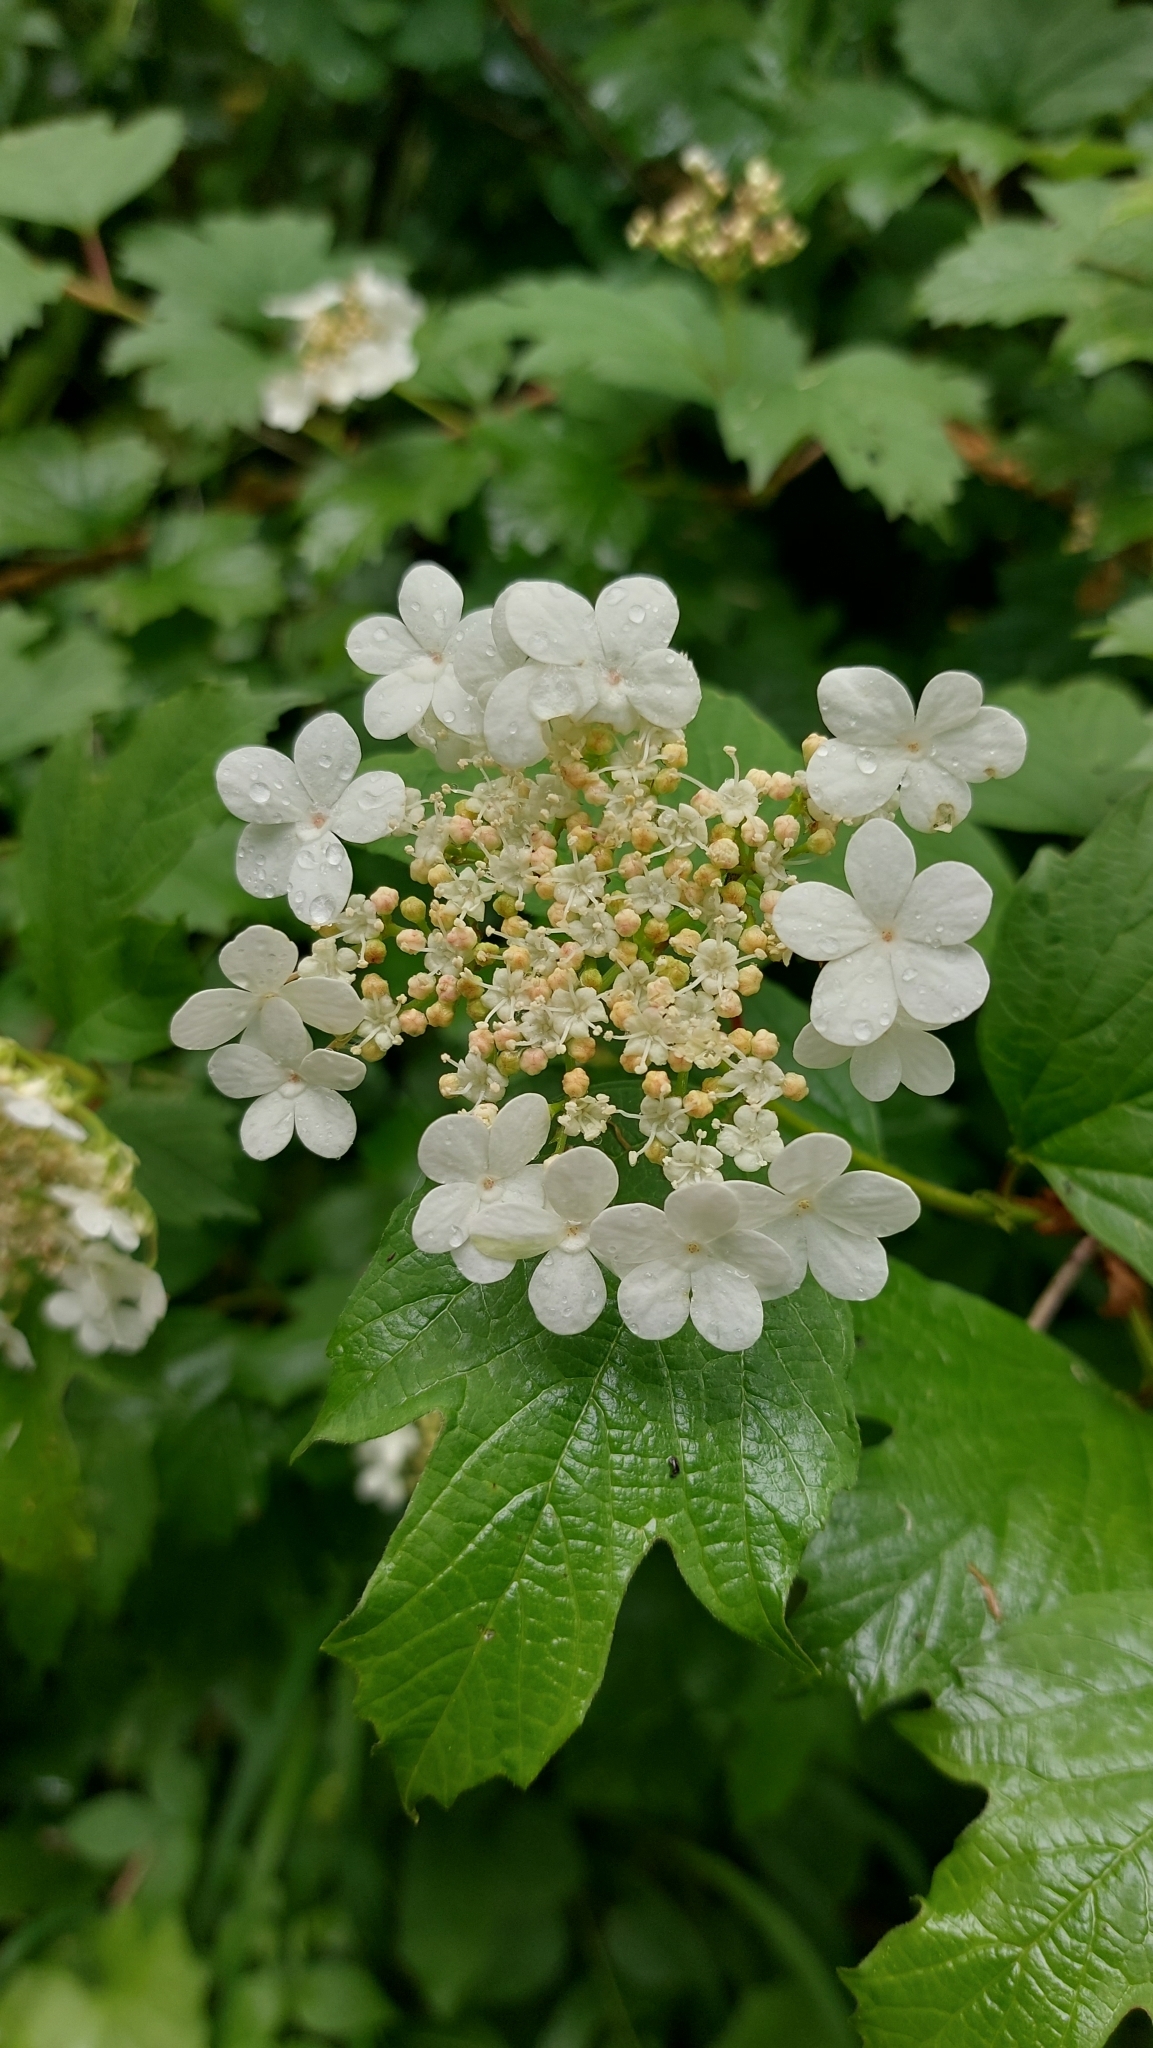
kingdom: Plantae
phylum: Tracheophyta
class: Magnoliopsida
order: Dipsacales
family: Viburnaceae
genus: Viburnum
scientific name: Viburnum opulus
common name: Guelder-rose
